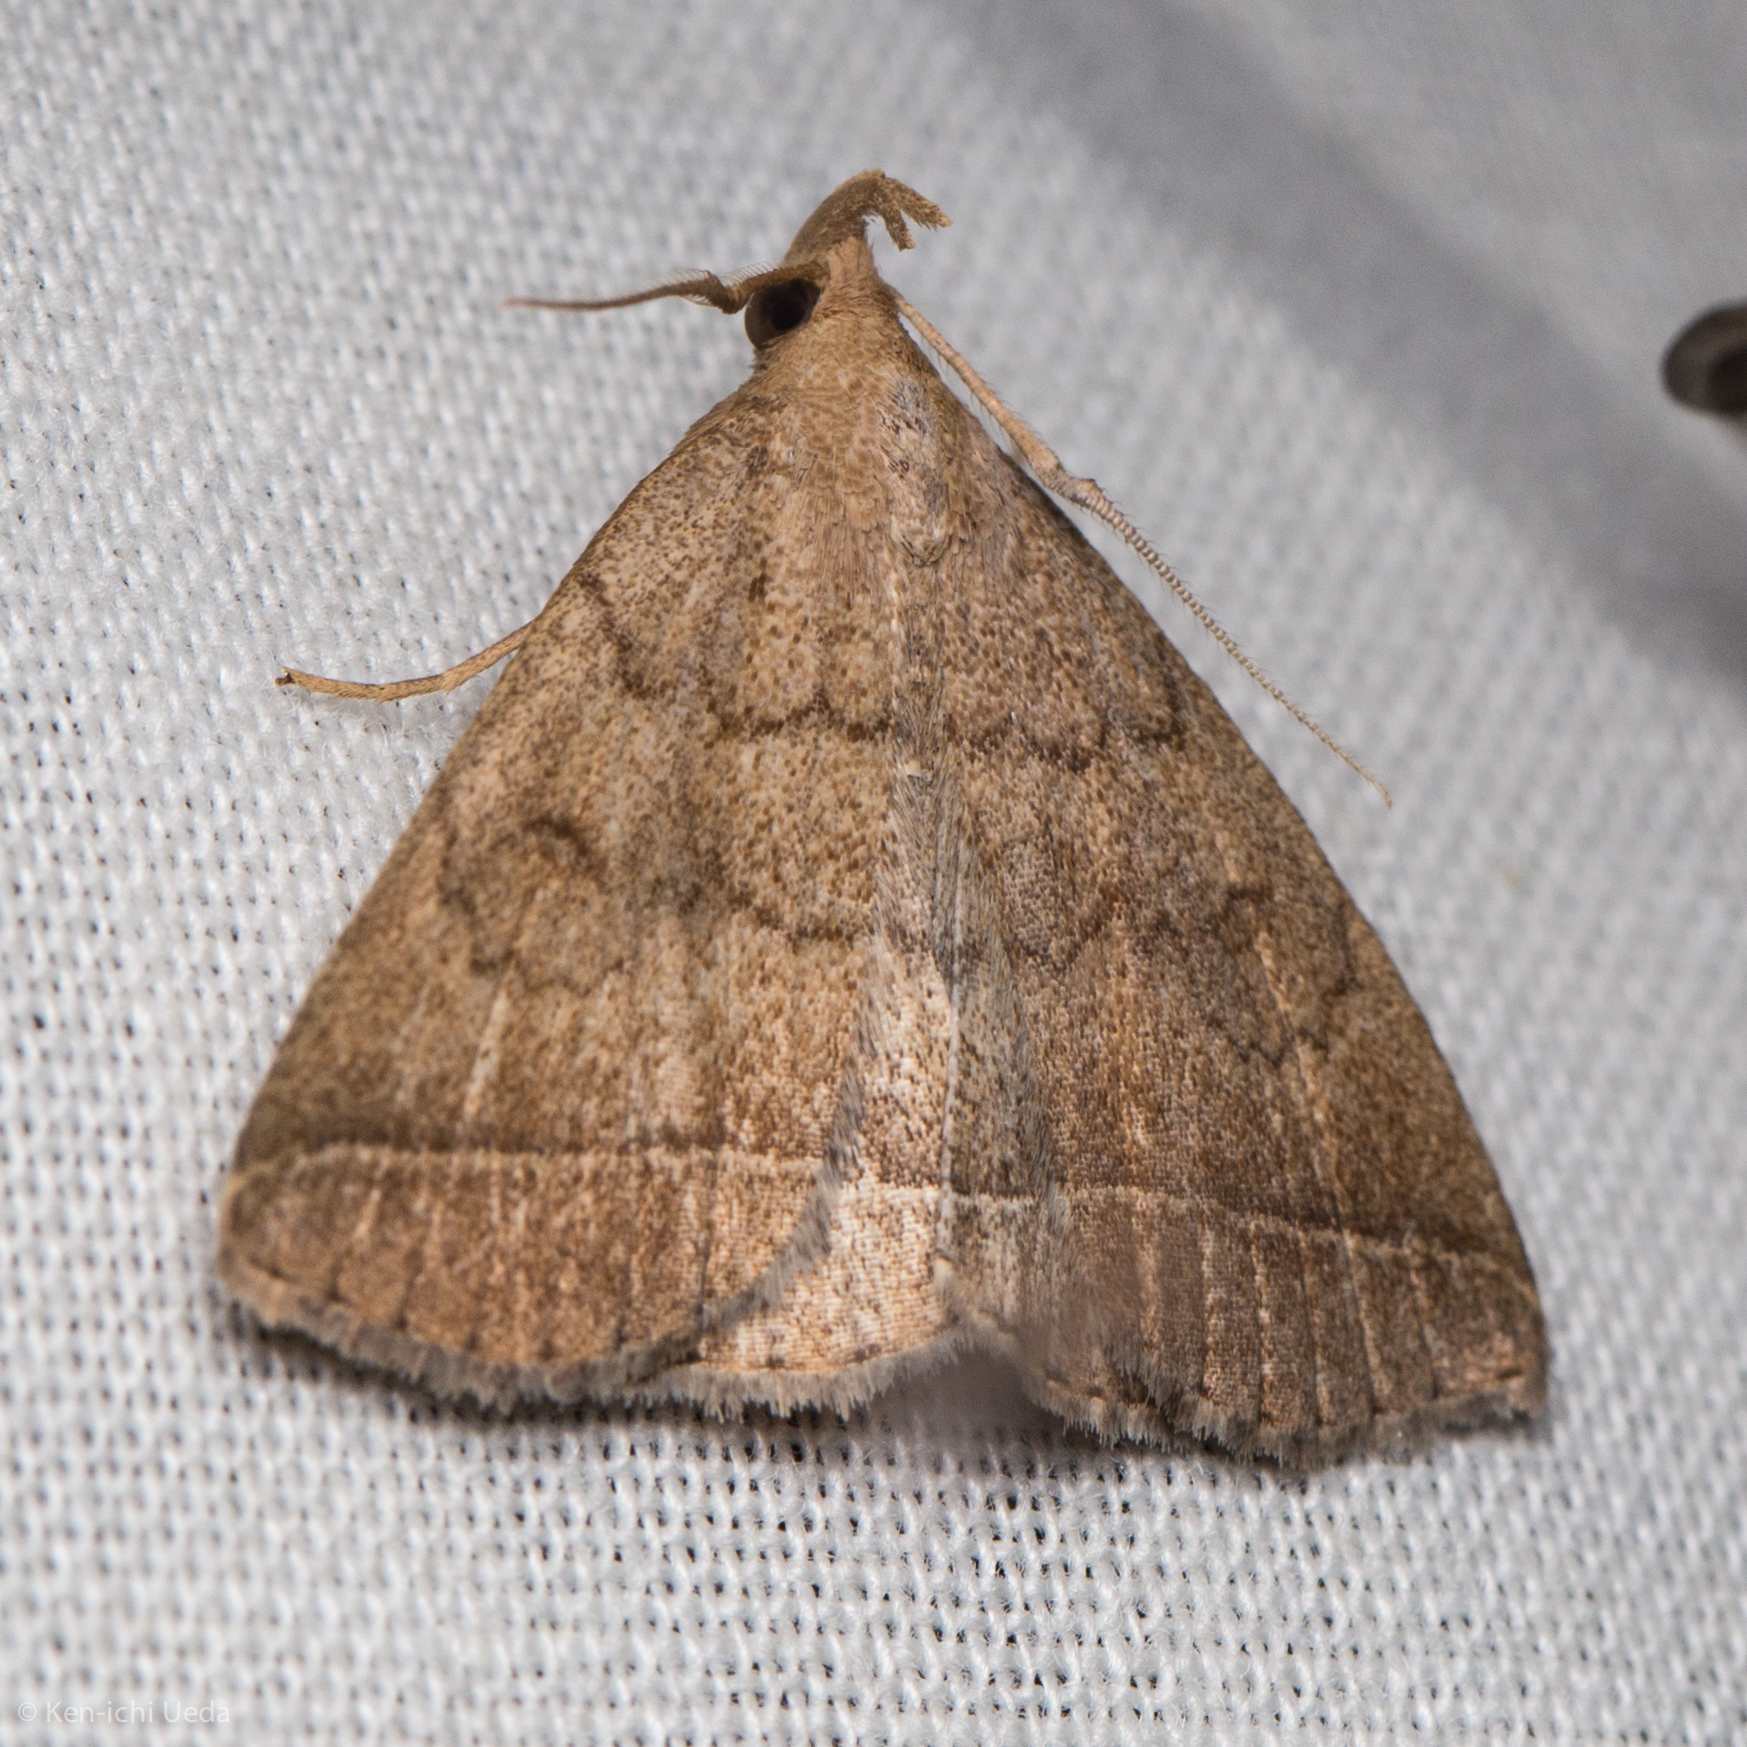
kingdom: Animalia
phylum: Arthropoda
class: Insecta
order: Lepidoptera
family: Erebidae
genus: Zanclognatha
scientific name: Zanclognatha jacchusalis
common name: Yellowish zanclognatha
